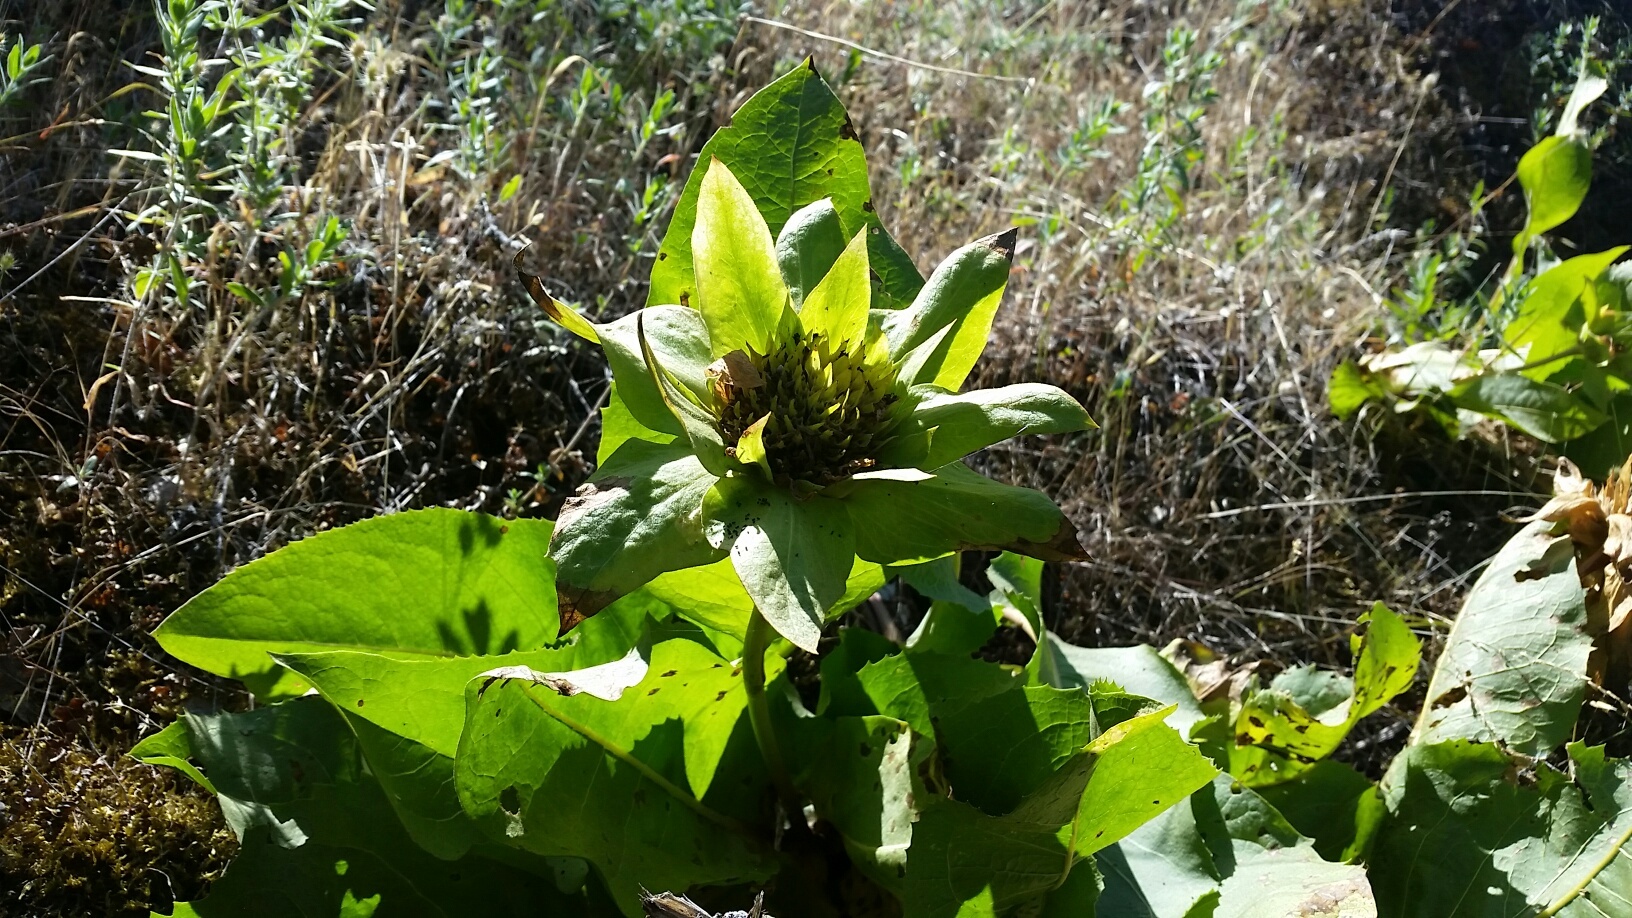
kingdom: Plantae
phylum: Tracheophyta
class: Magnoliopsida
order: Asterales
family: Asteraceae
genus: Wyethia
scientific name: Wyethia glabra
